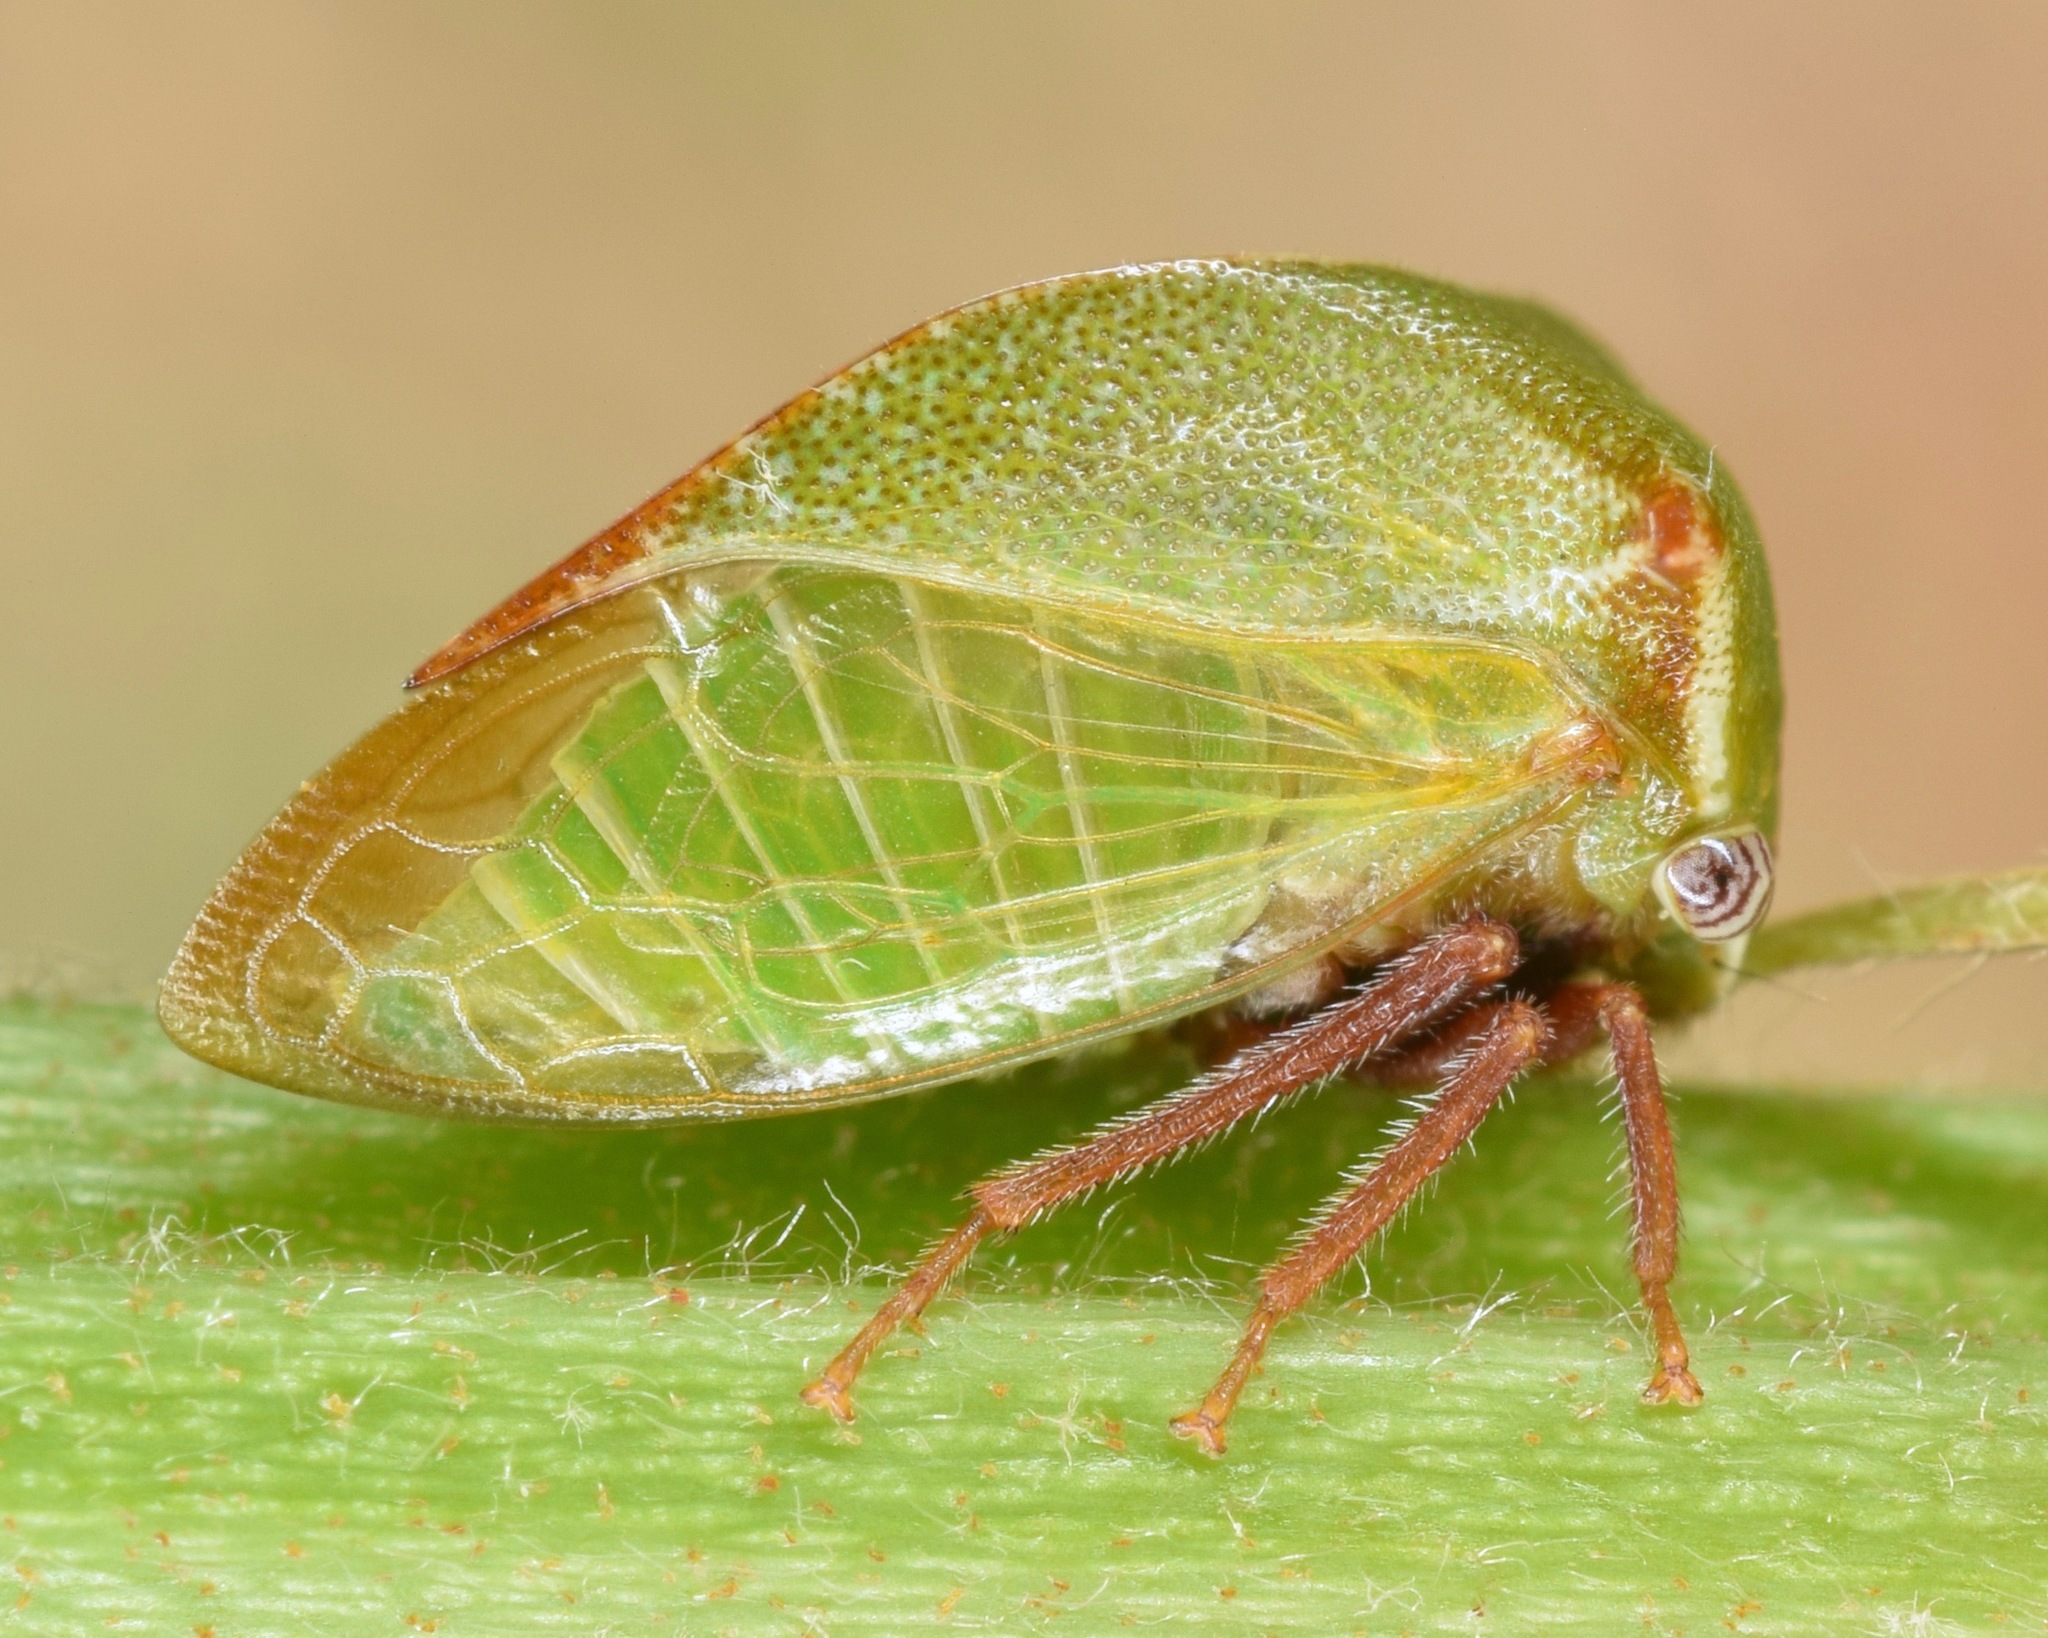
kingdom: Animalia
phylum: Arthropoda
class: Insecta
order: Hemiptera
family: Membracidae
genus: Stictocephala
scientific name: Stictocephala brevitylus
